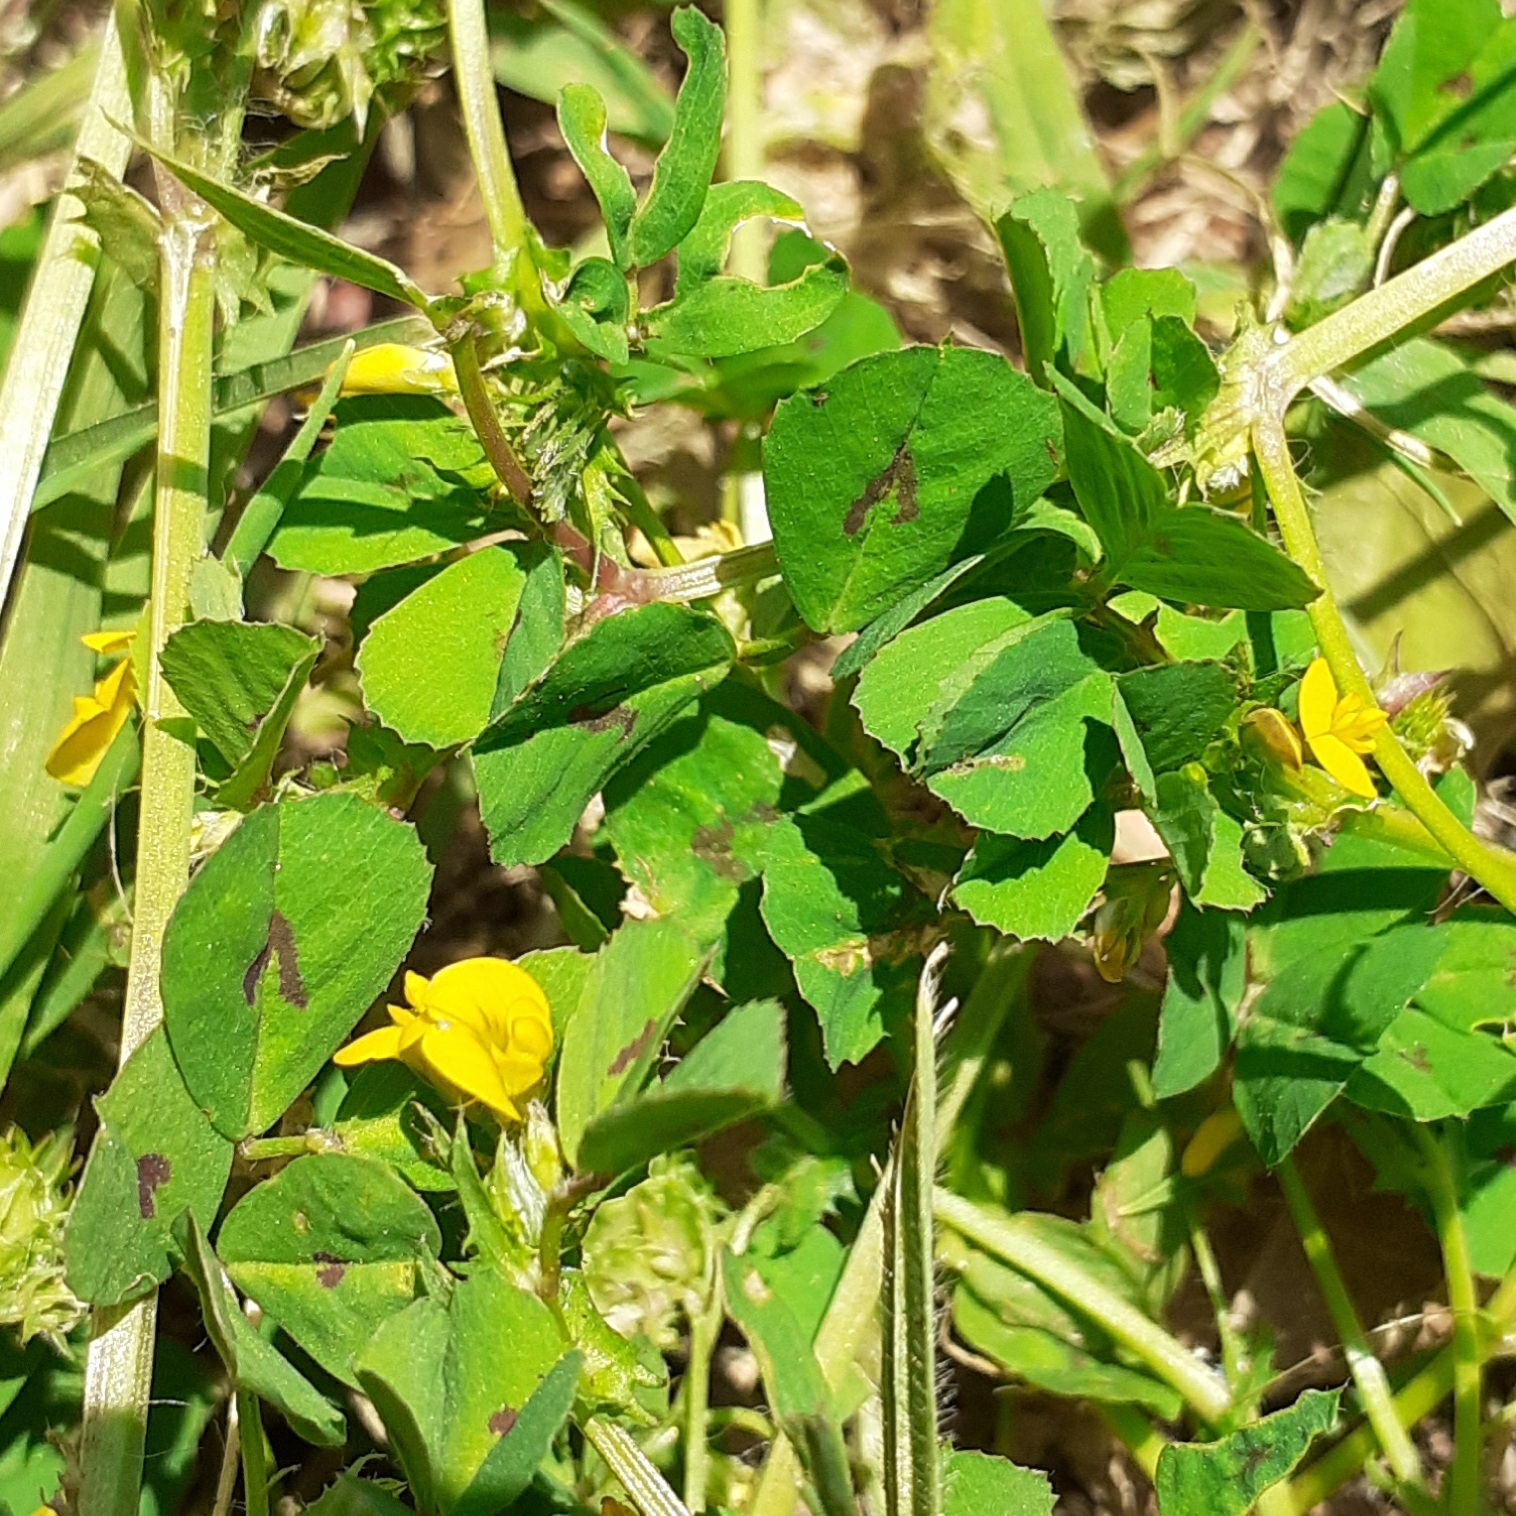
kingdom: Plantae
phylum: Tracheophyta
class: Magnoliopsida
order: Fabales
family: Fabaceae
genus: Medicago
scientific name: Medicago arabica
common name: Spotted medick
